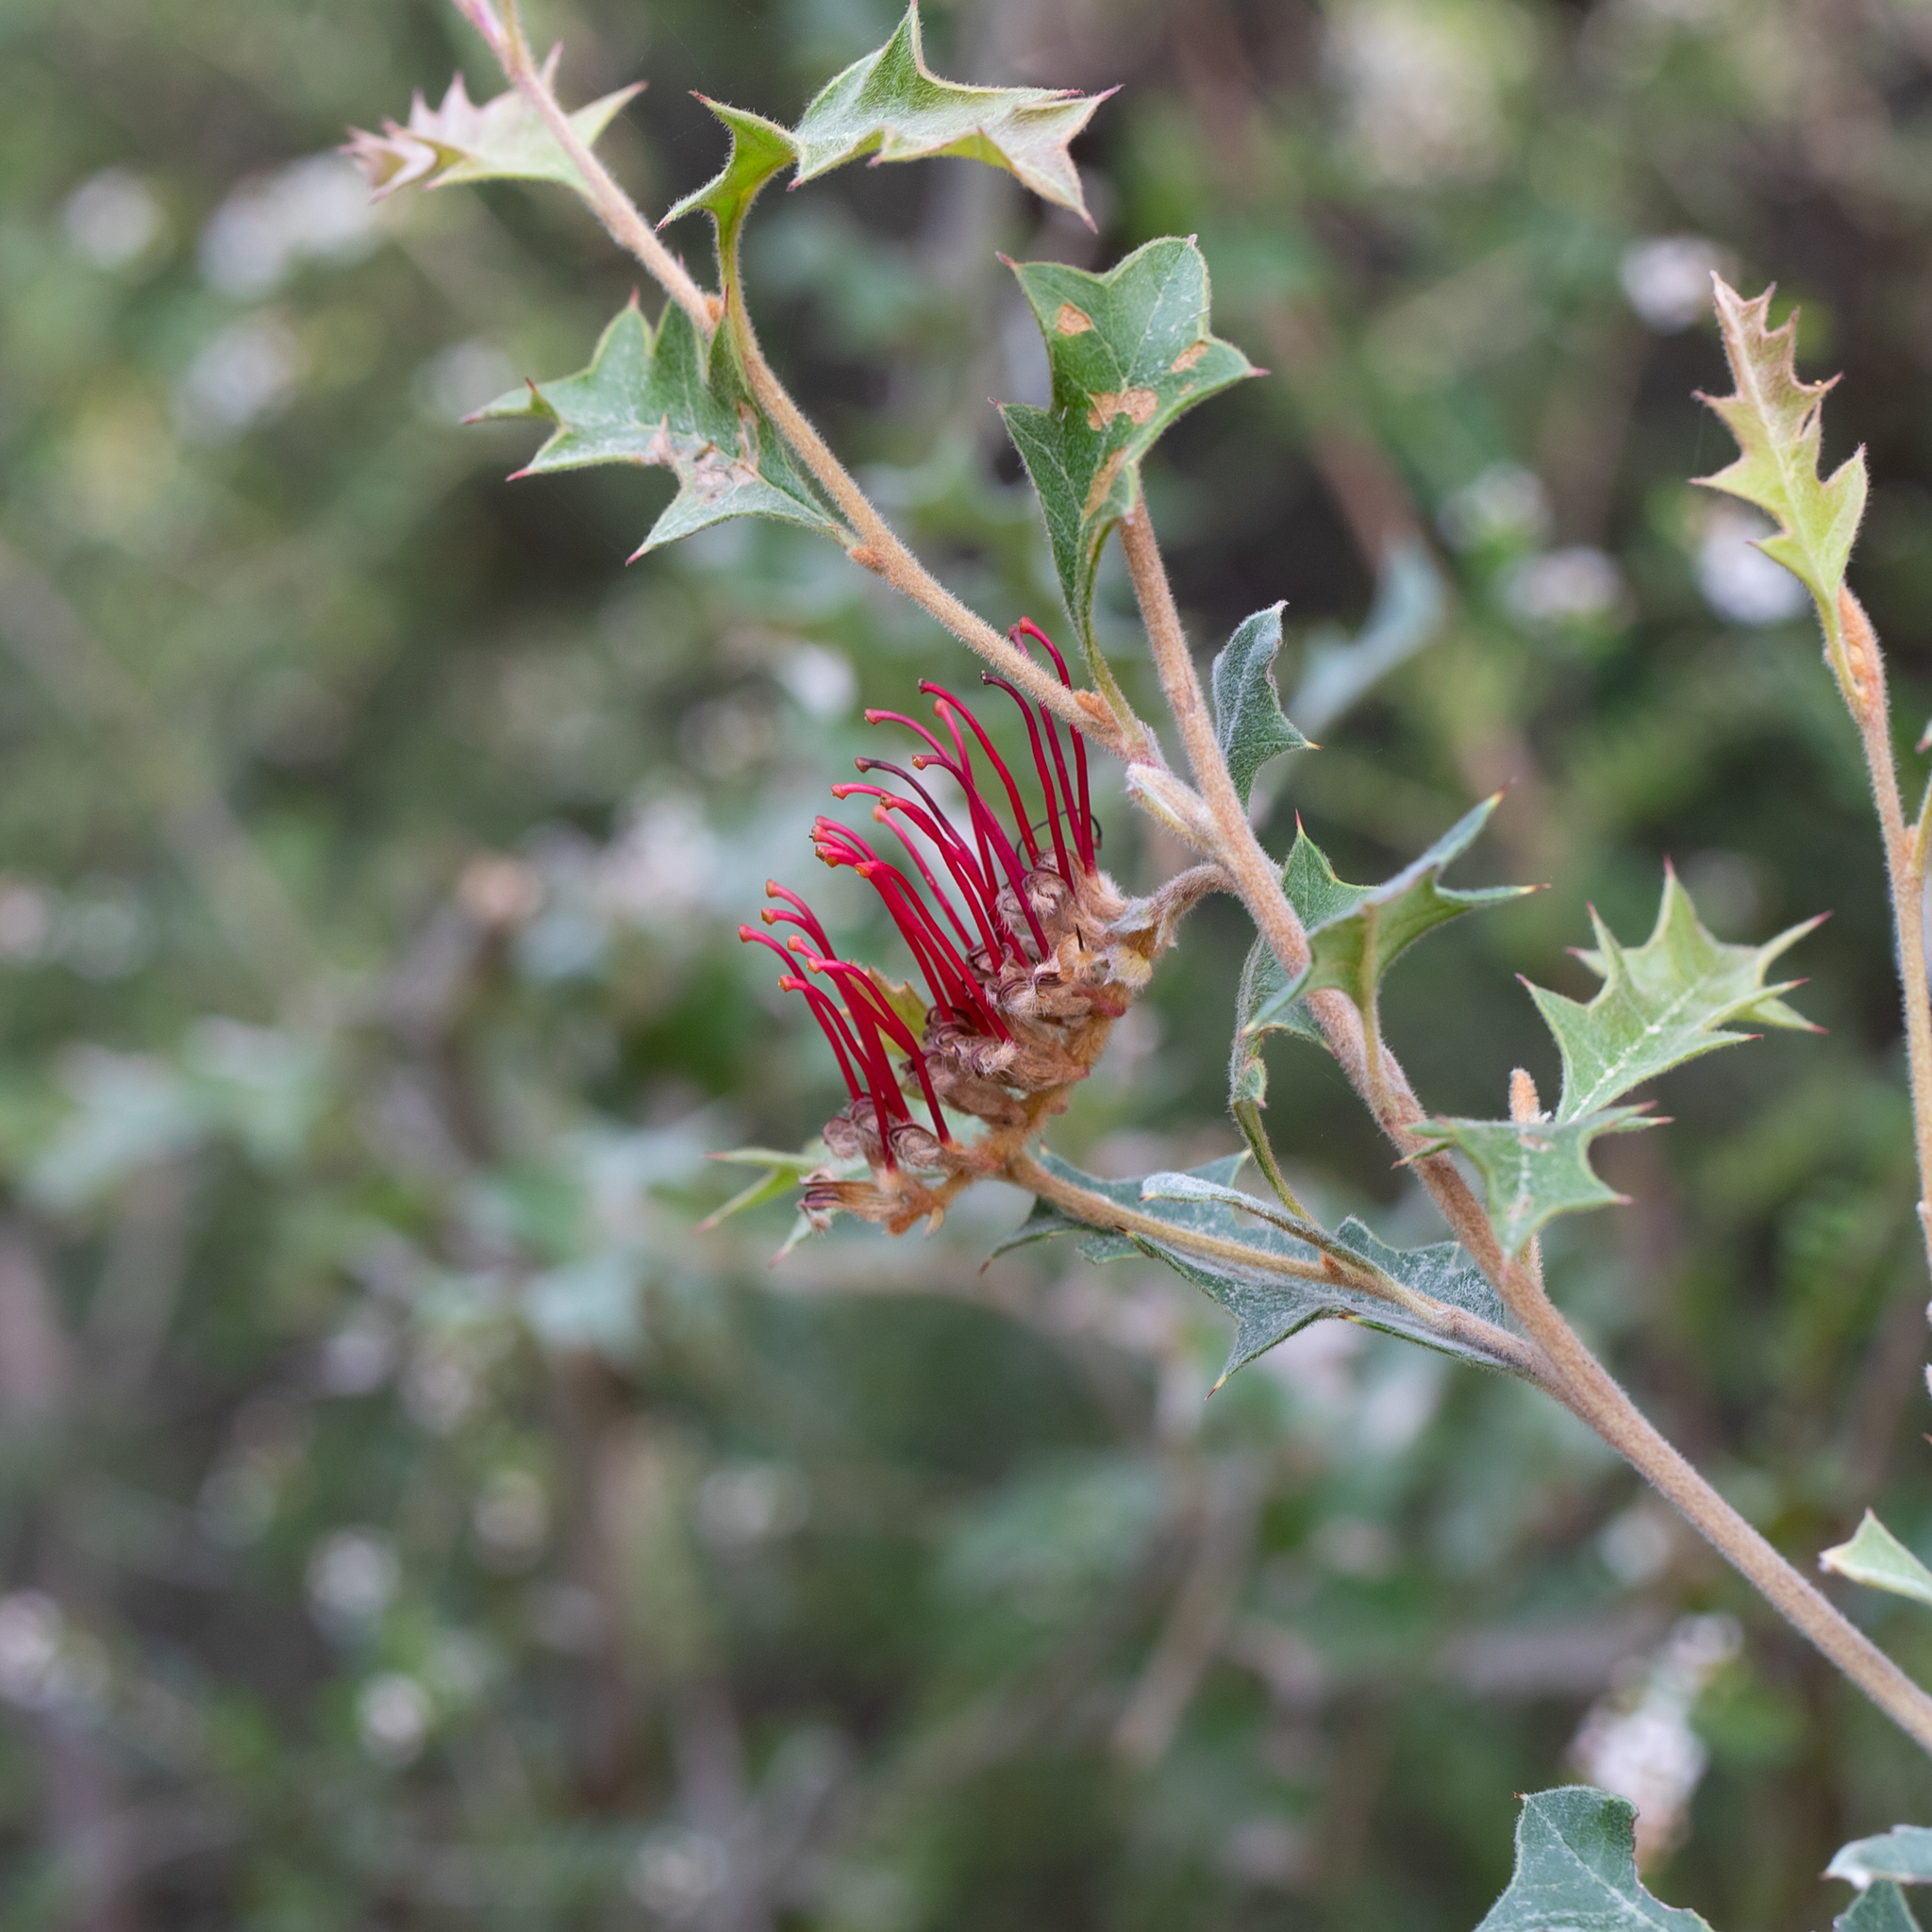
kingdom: Plantae
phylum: Tracheophyta
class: Magnoliopsida
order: Proteales
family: Proteaceae
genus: Grevillea
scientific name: Grevillea aquifolium
